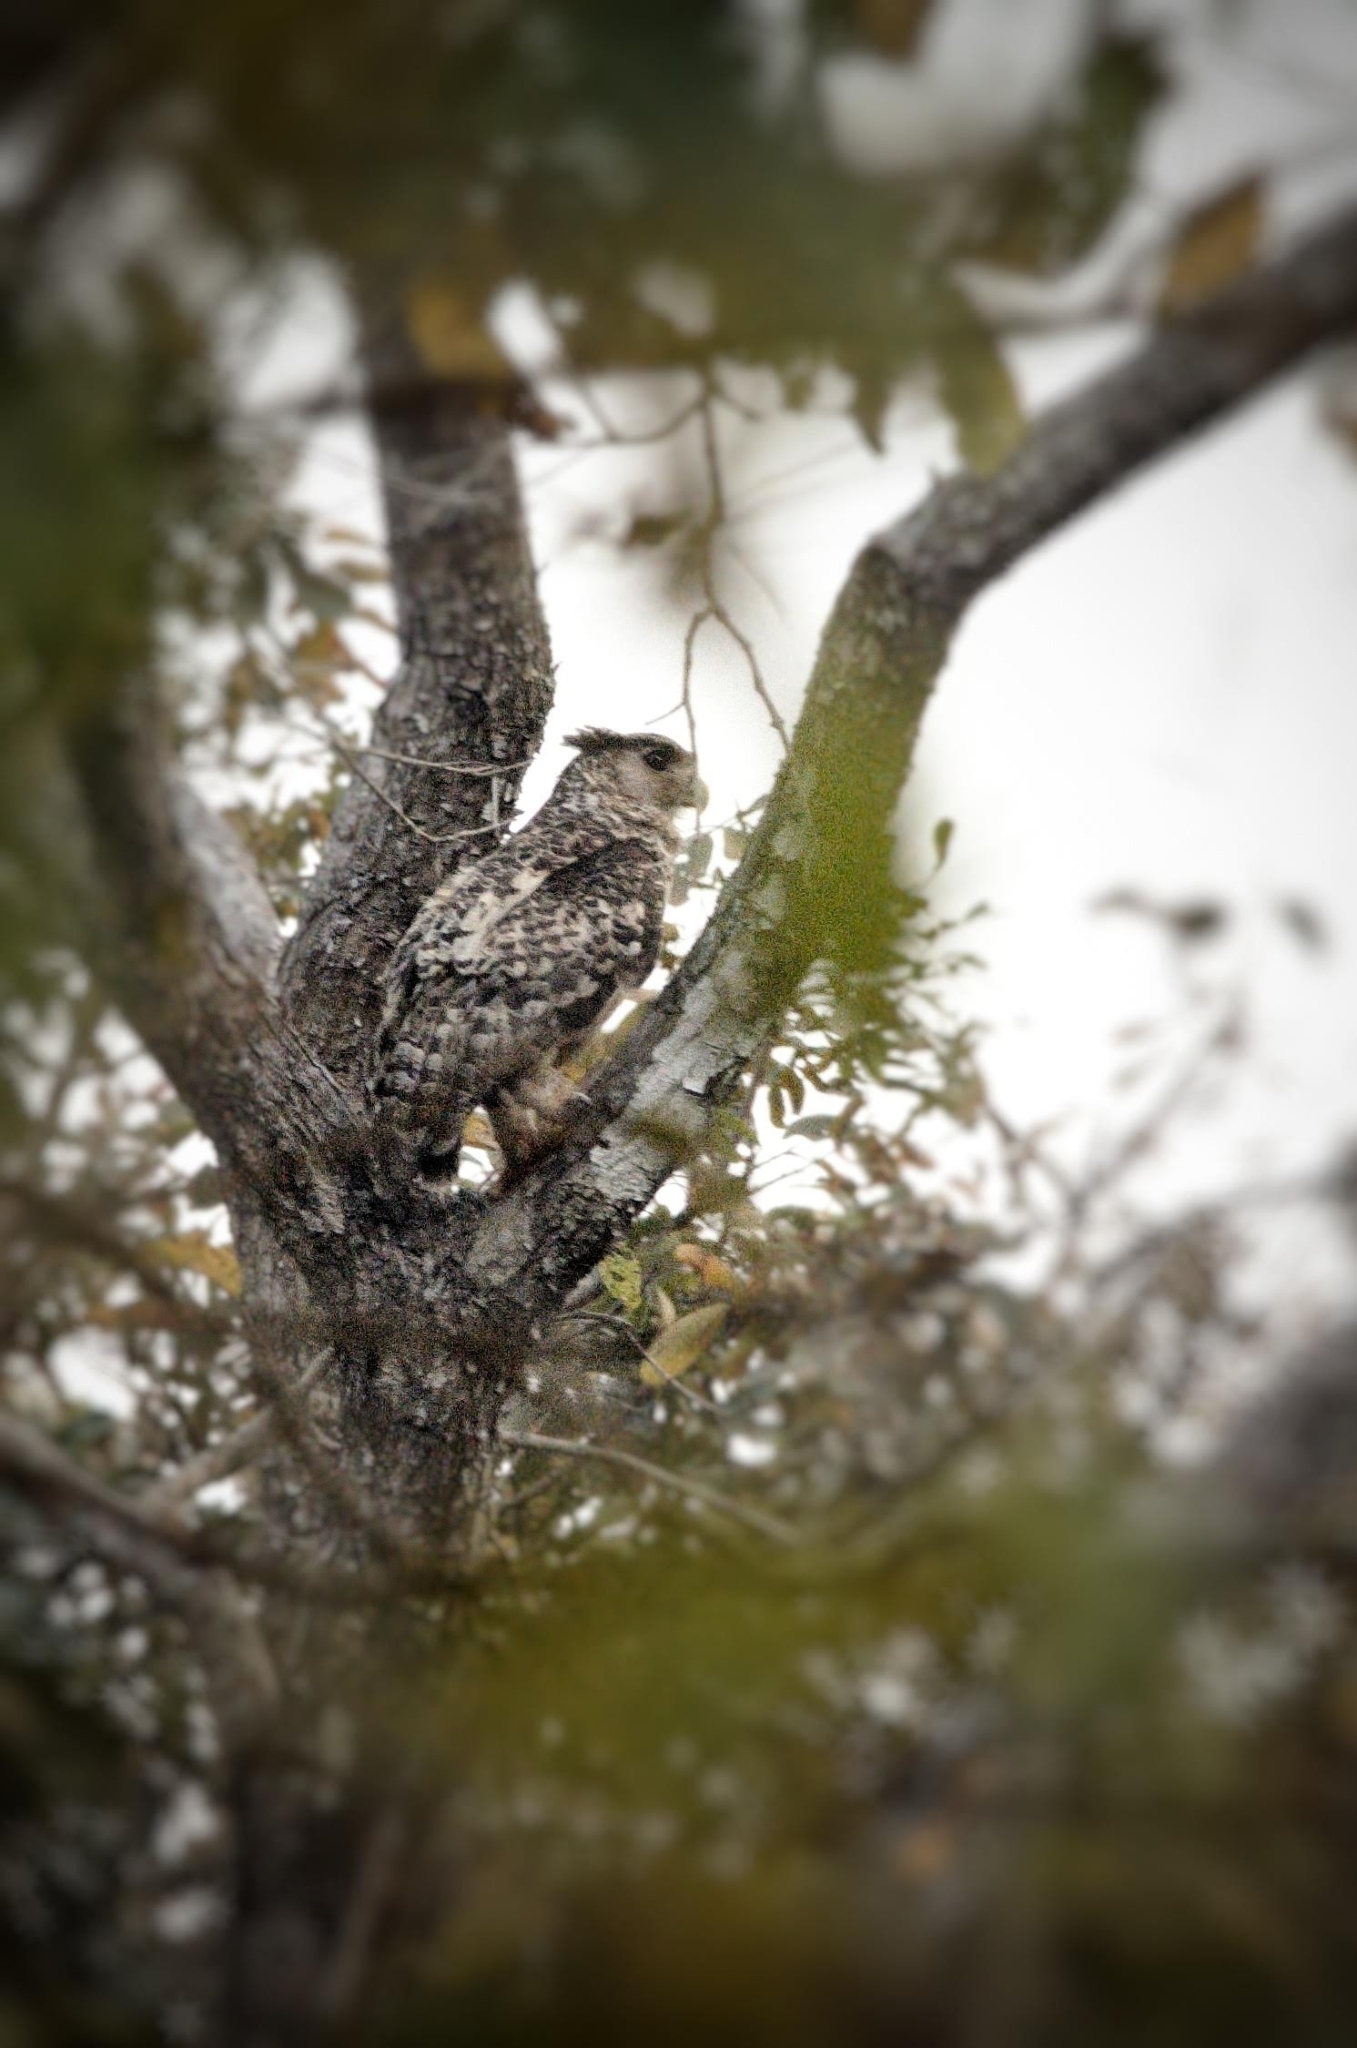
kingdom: Animalia
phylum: Chordata
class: Aves
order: Strigiformes
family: Strigidae
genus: Ketupa
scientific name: Ketupa nipalensis
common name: Spot-bellied eagle-owl
